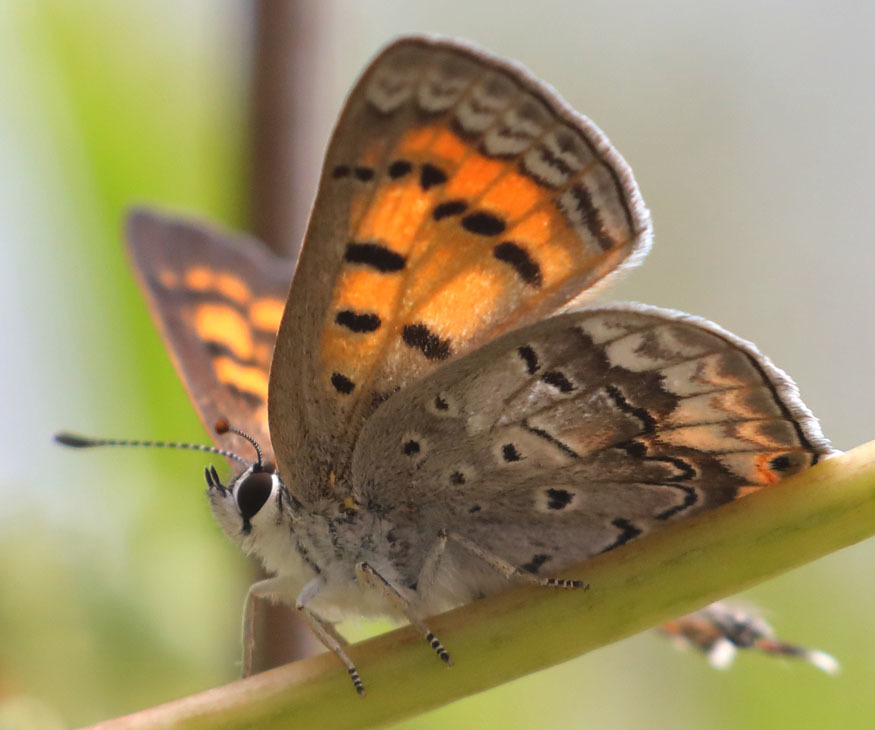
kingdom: Animalia
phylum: Arthropoda
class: Insecta
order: Lepidoptera
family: Lycaenidae
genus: Tharsalea
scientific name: Tharsalea arota
